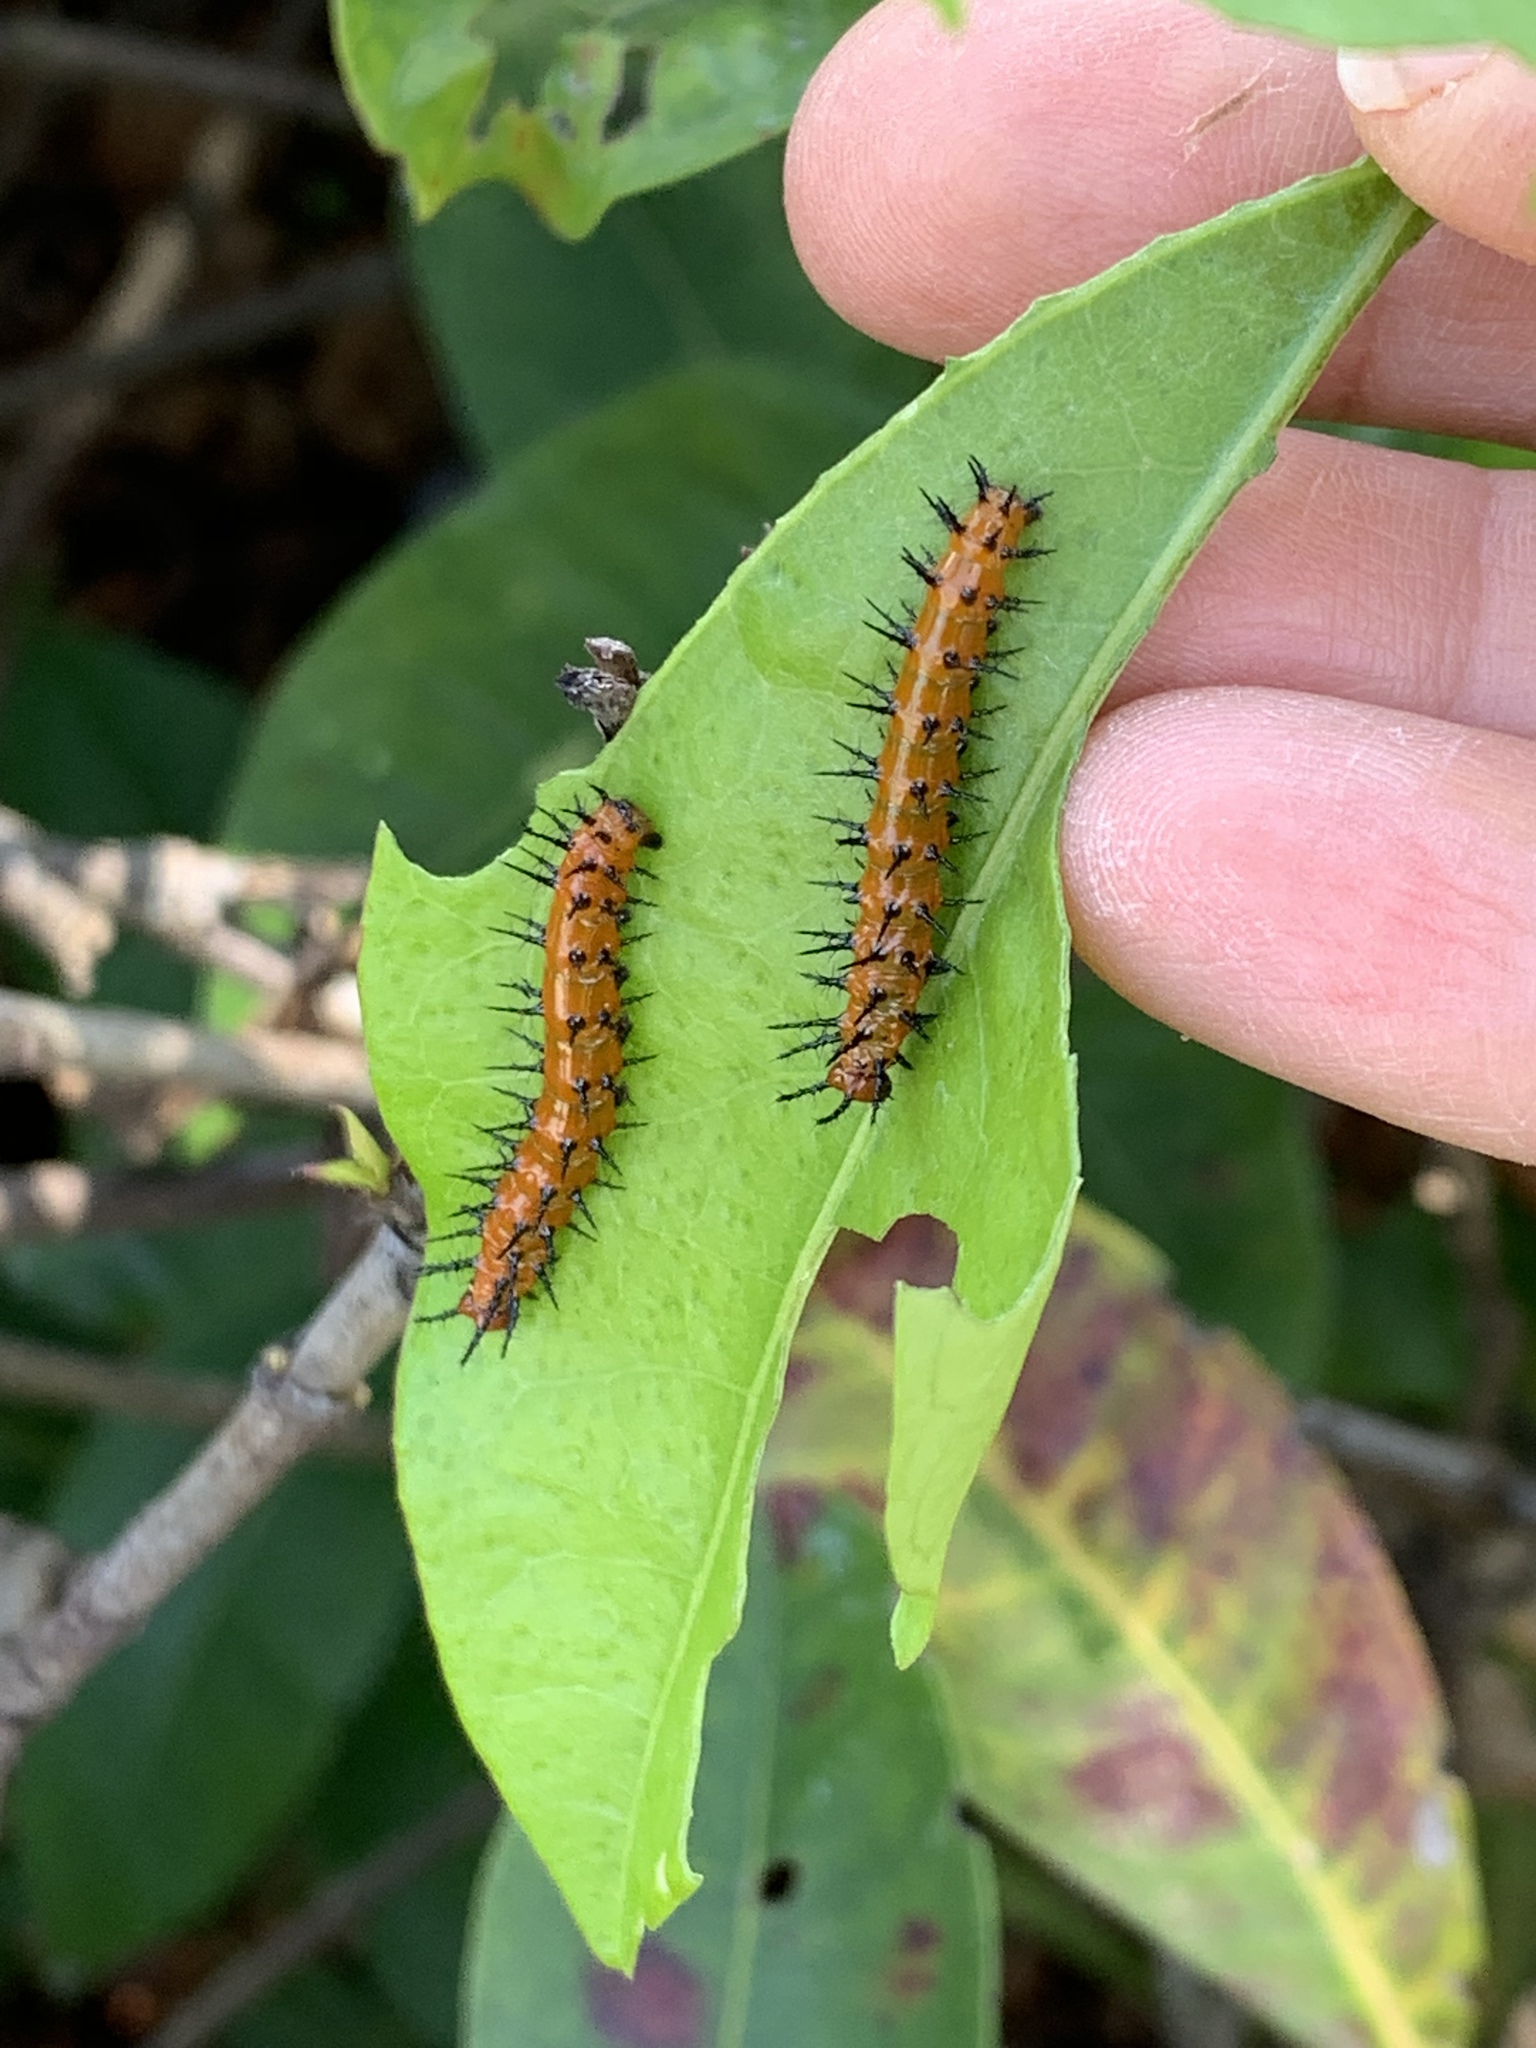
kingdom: Animalia
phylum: Arthropoda
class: Insecta
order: Lepidoptera
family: Nymphalidae
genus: Dione
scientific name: Dione vanillae
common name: Gulf fritillary
